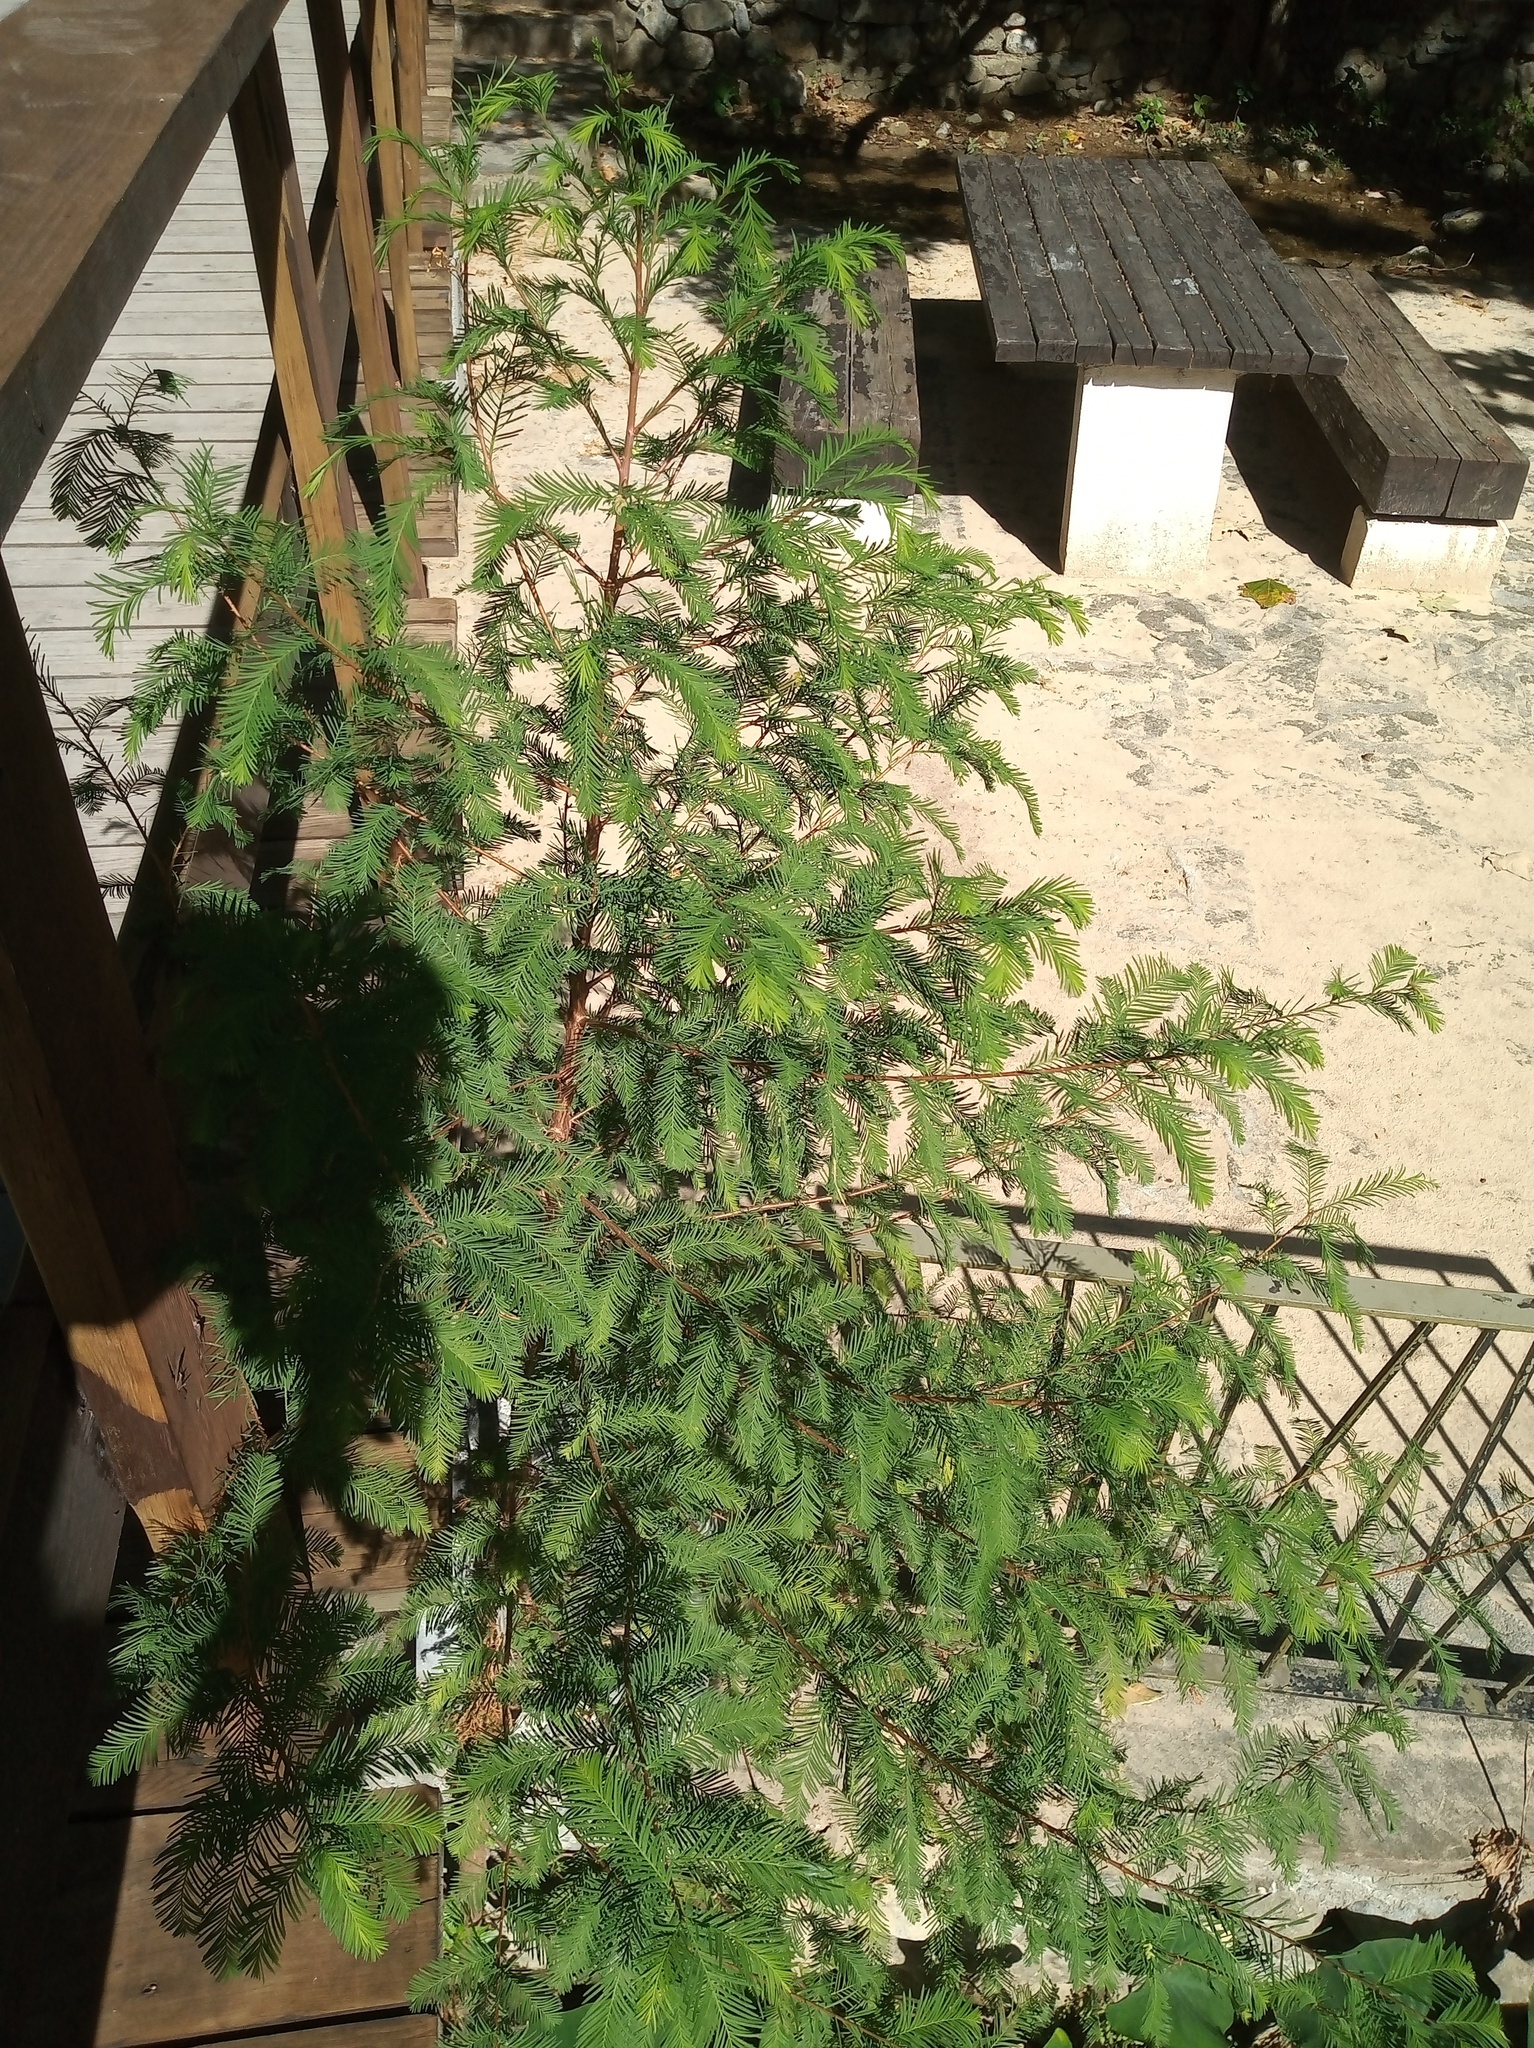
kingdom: Plantae
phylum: Tracheophyta
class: Pinopsida
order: Pinales
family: Cupressaceae
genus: Taxodium
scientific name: Taxodium mucronatum
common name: Montezume bald cypress
